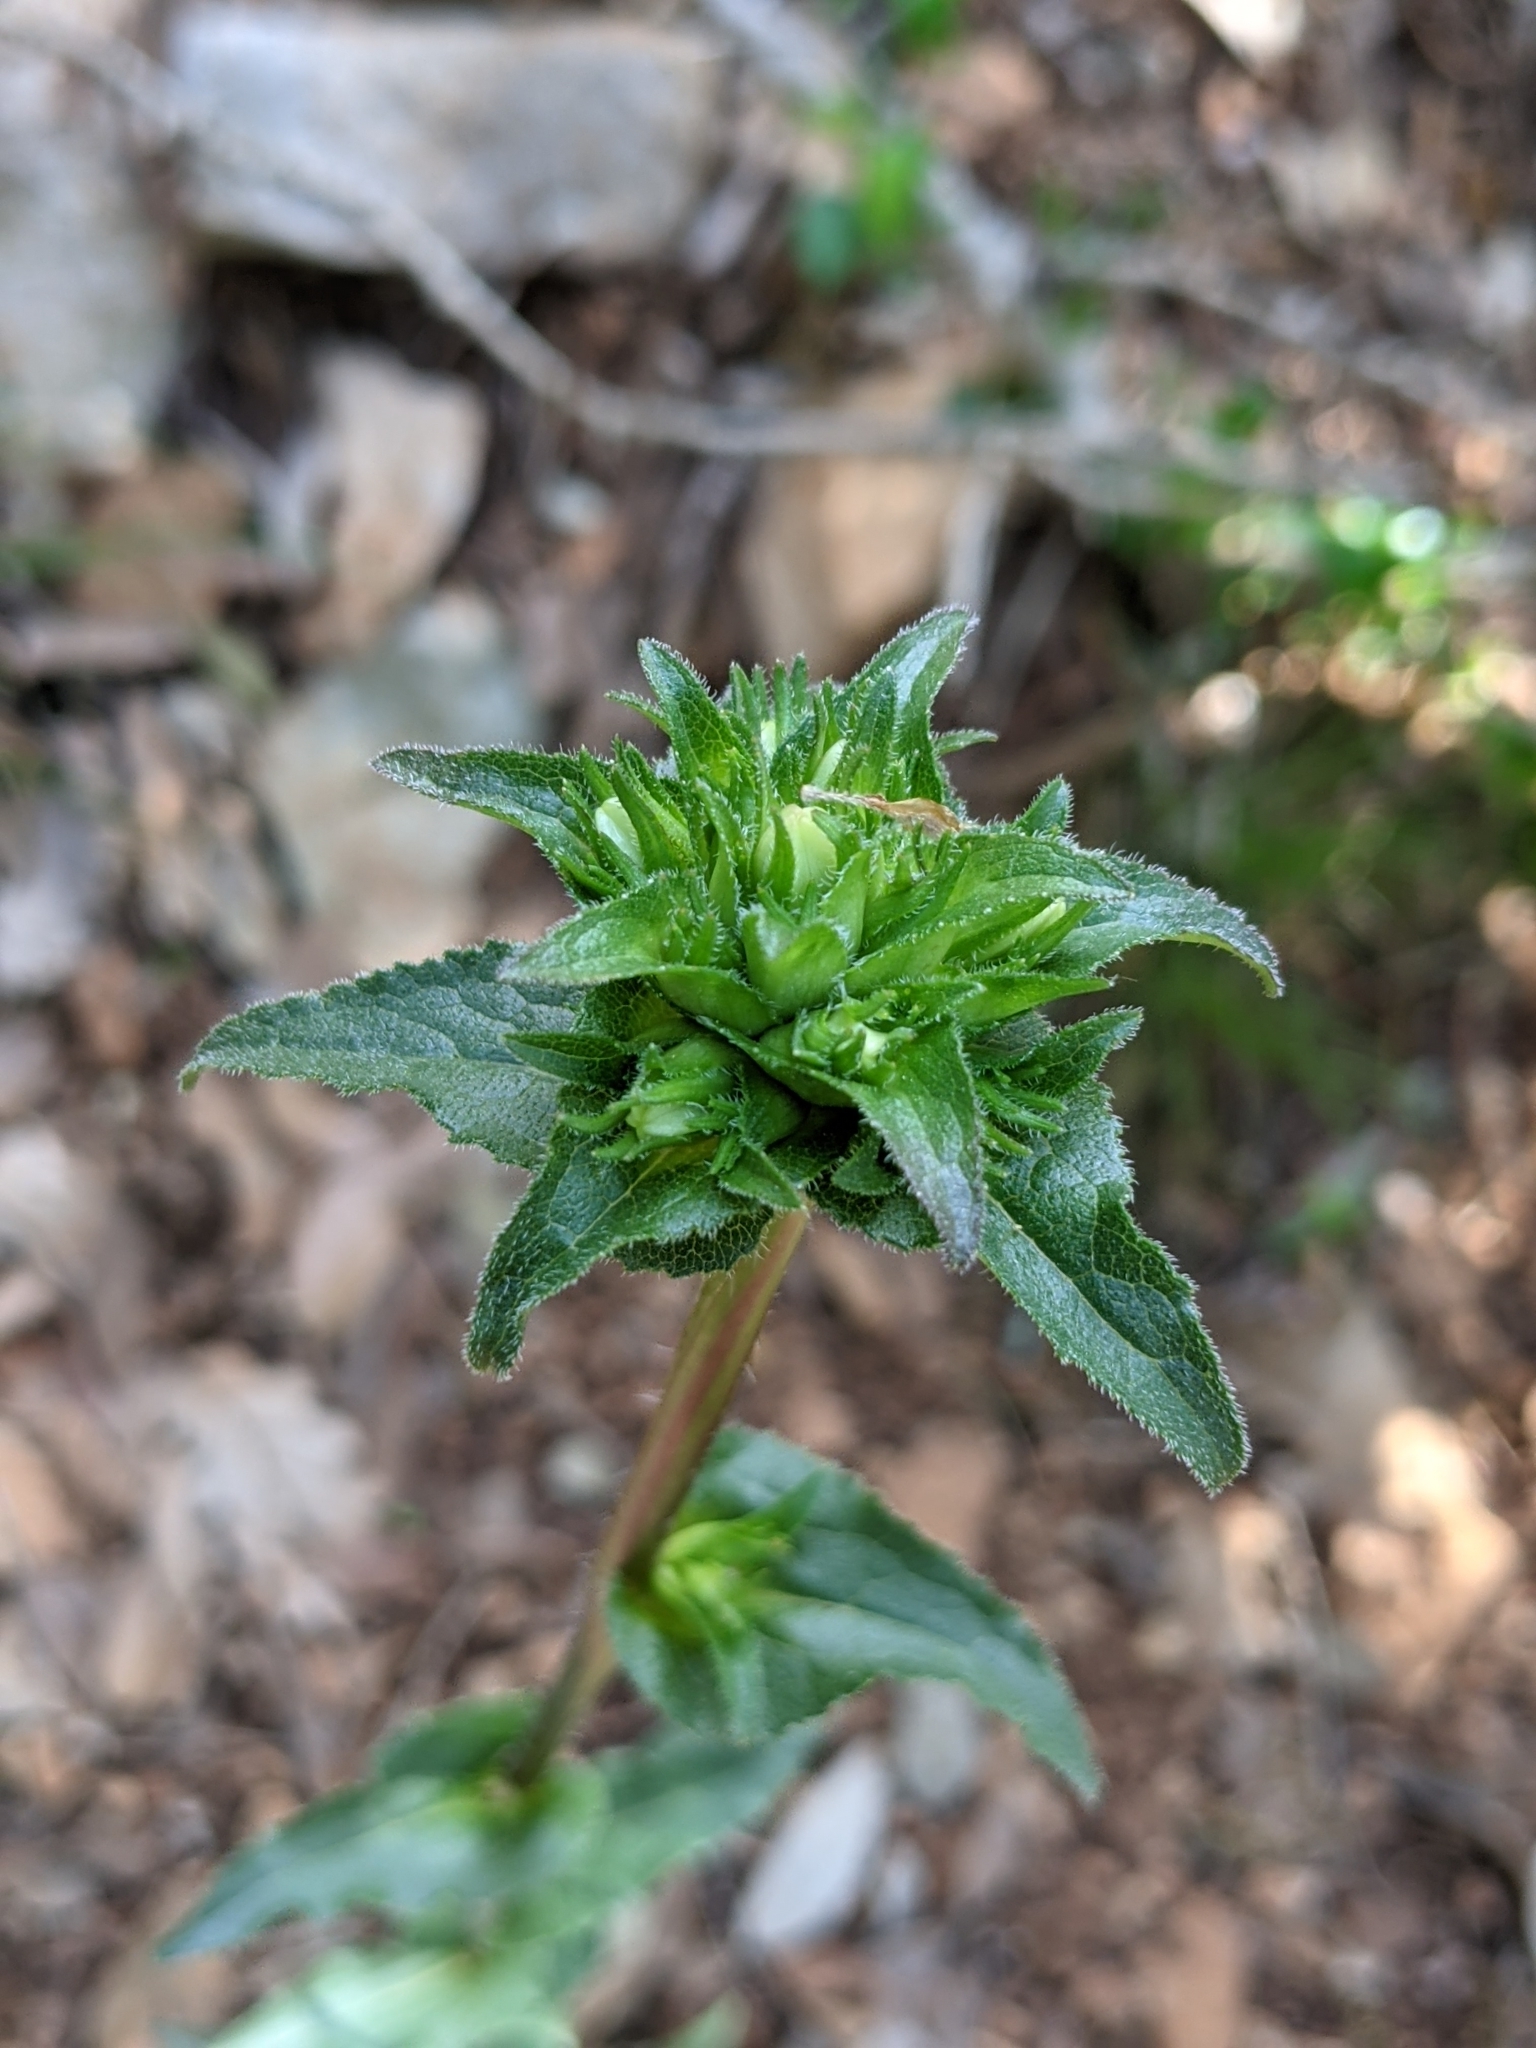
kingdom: Plantae
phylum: Tracheophyta
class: Magnoliopsida
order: Asterales
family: Campanulaceae
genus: Campanula
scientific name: Campanula glomerata
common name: Clustered bellflower
